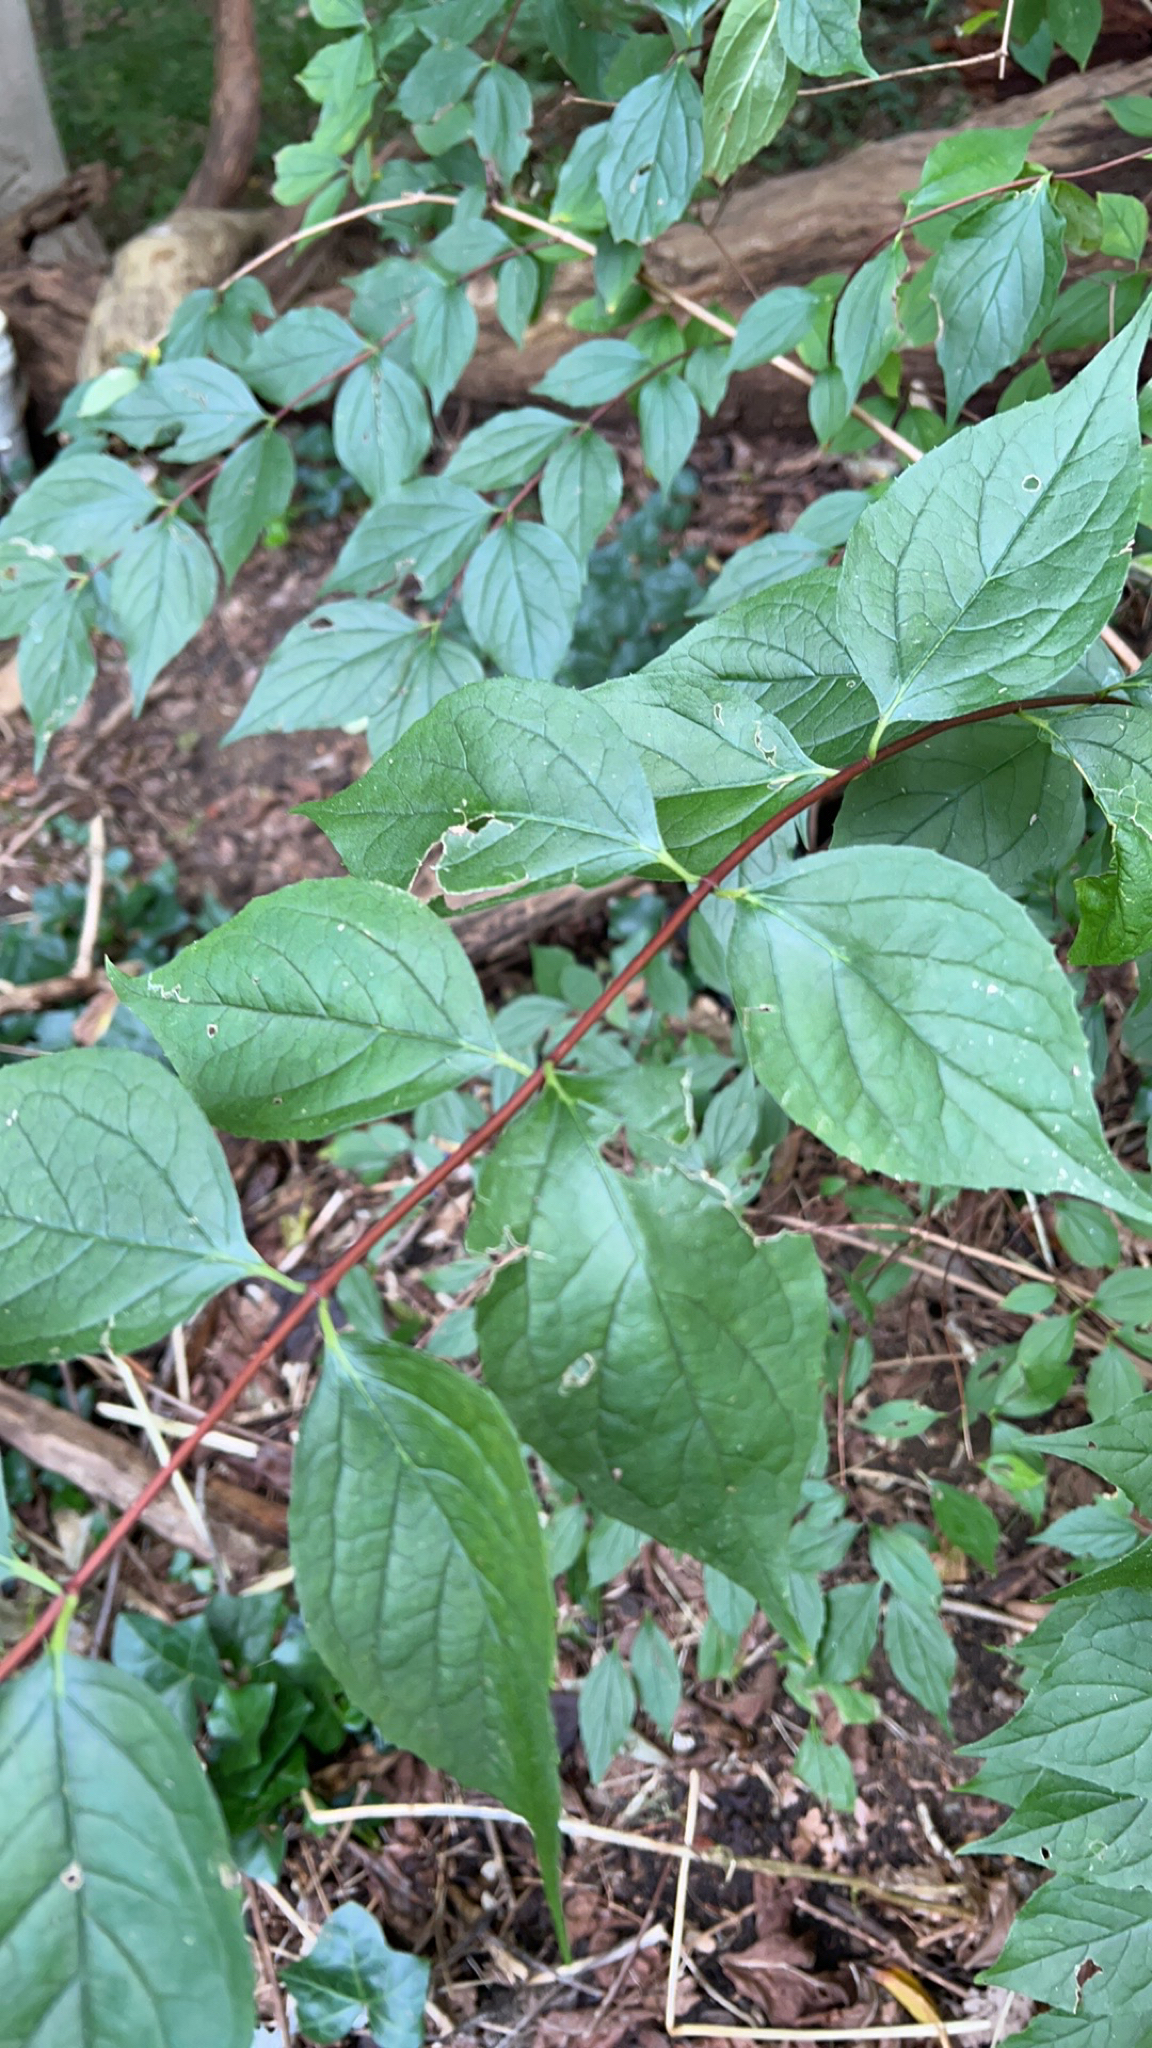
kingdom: Plantae
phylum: Tracheophyta
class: Magnoliopsida
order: Cornales
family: Hydrangeaceae
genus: Philadelphus
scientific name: Philadelphus coronarius
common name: Mock orange
